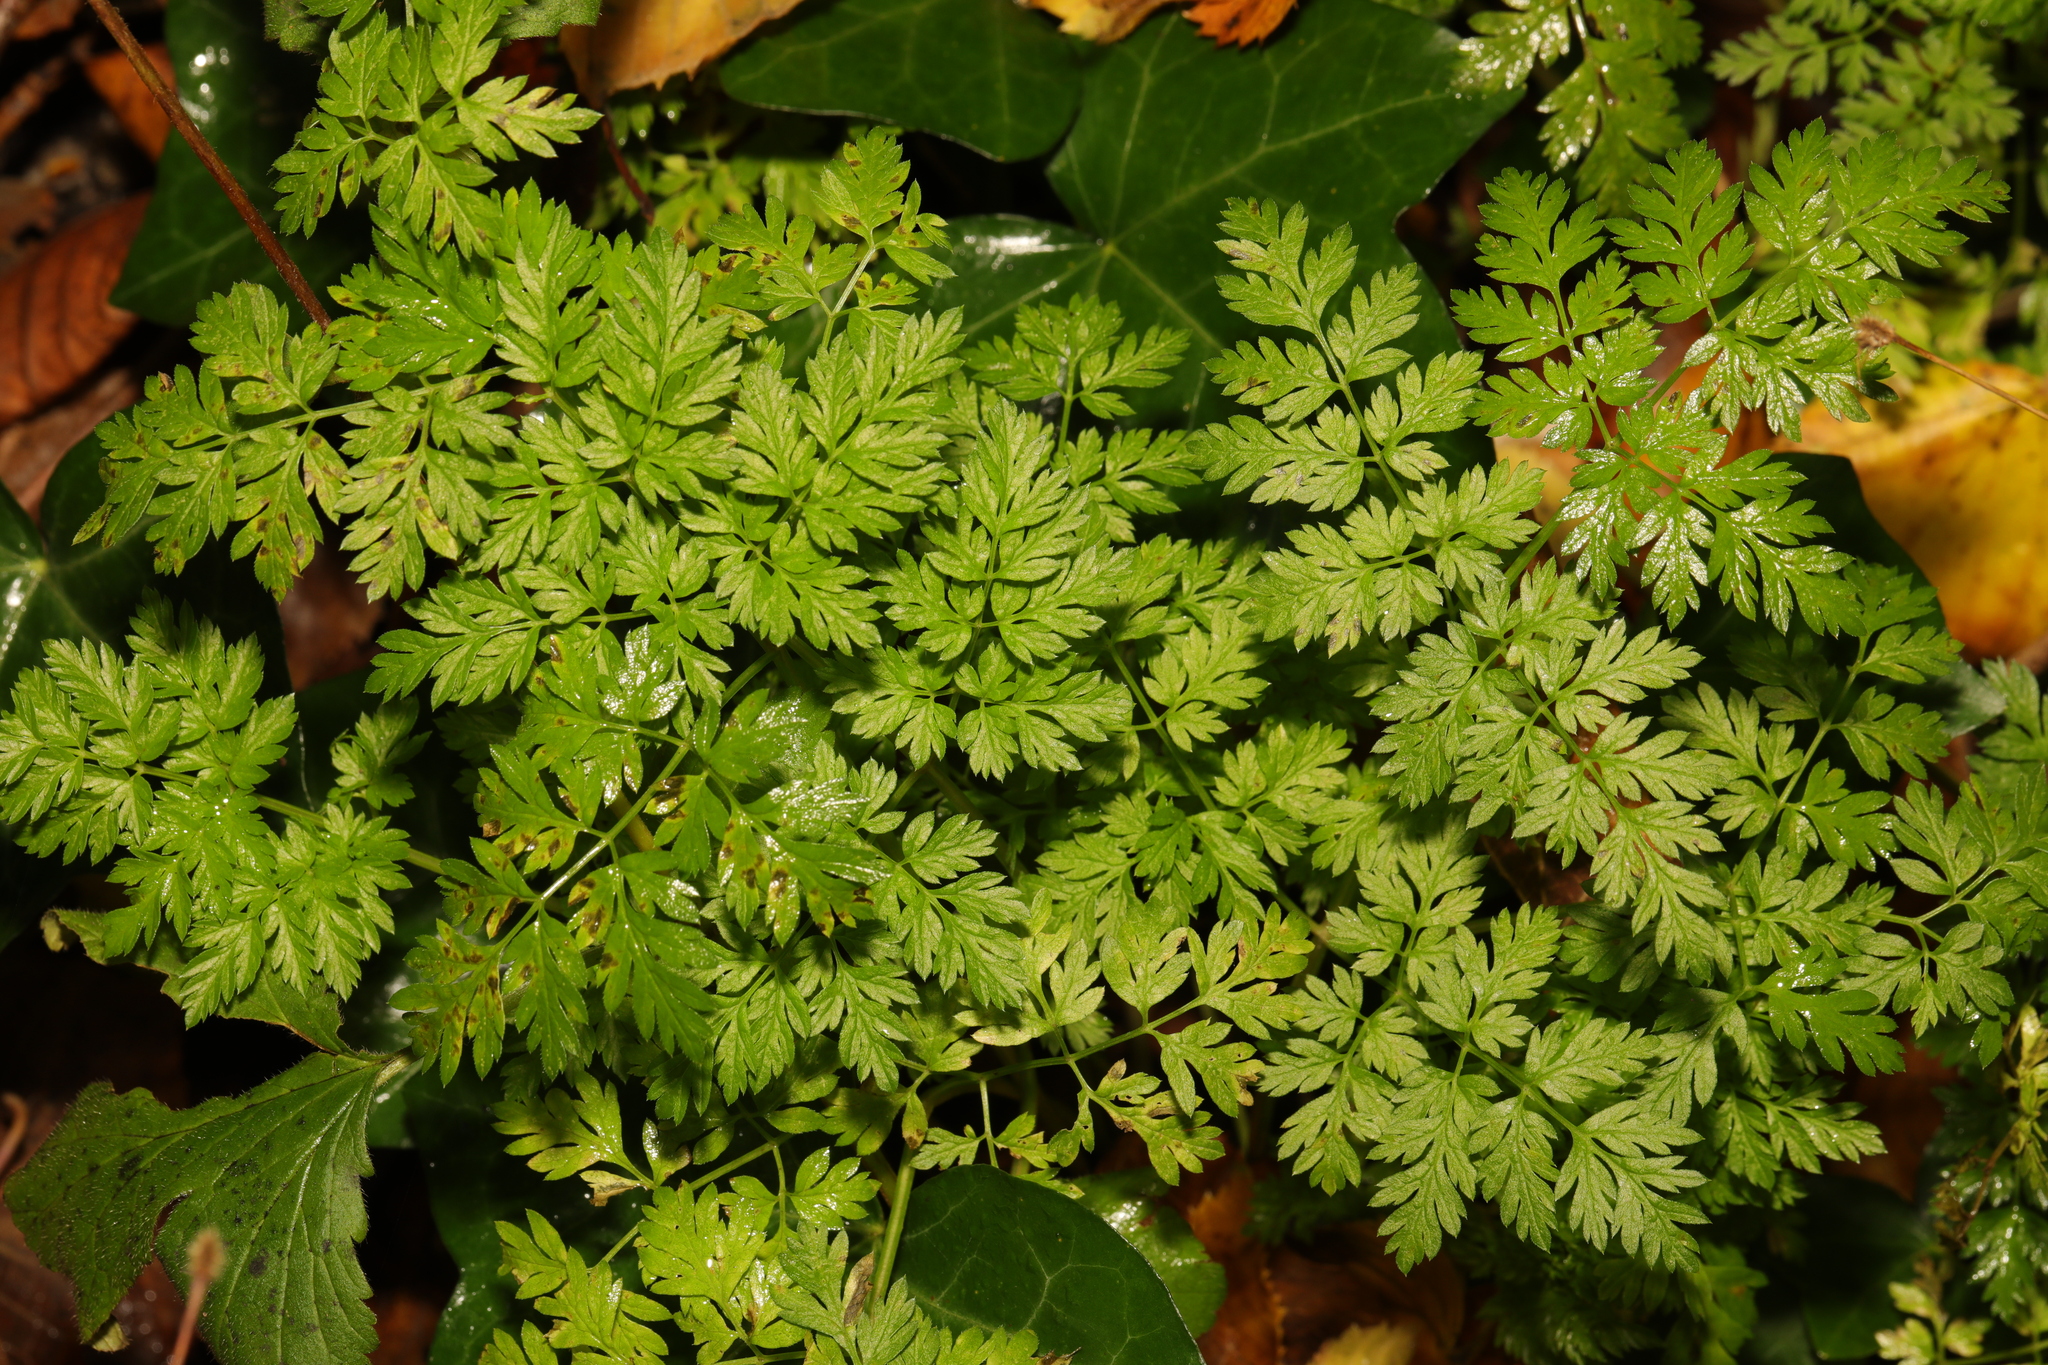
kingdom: Plantae
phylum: Tracheophyta
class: Magnoliopsida
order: Apiales
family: Apiaceae
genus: Anthriscus
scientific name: Anthriscus sylvestris
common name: Cow parsley
